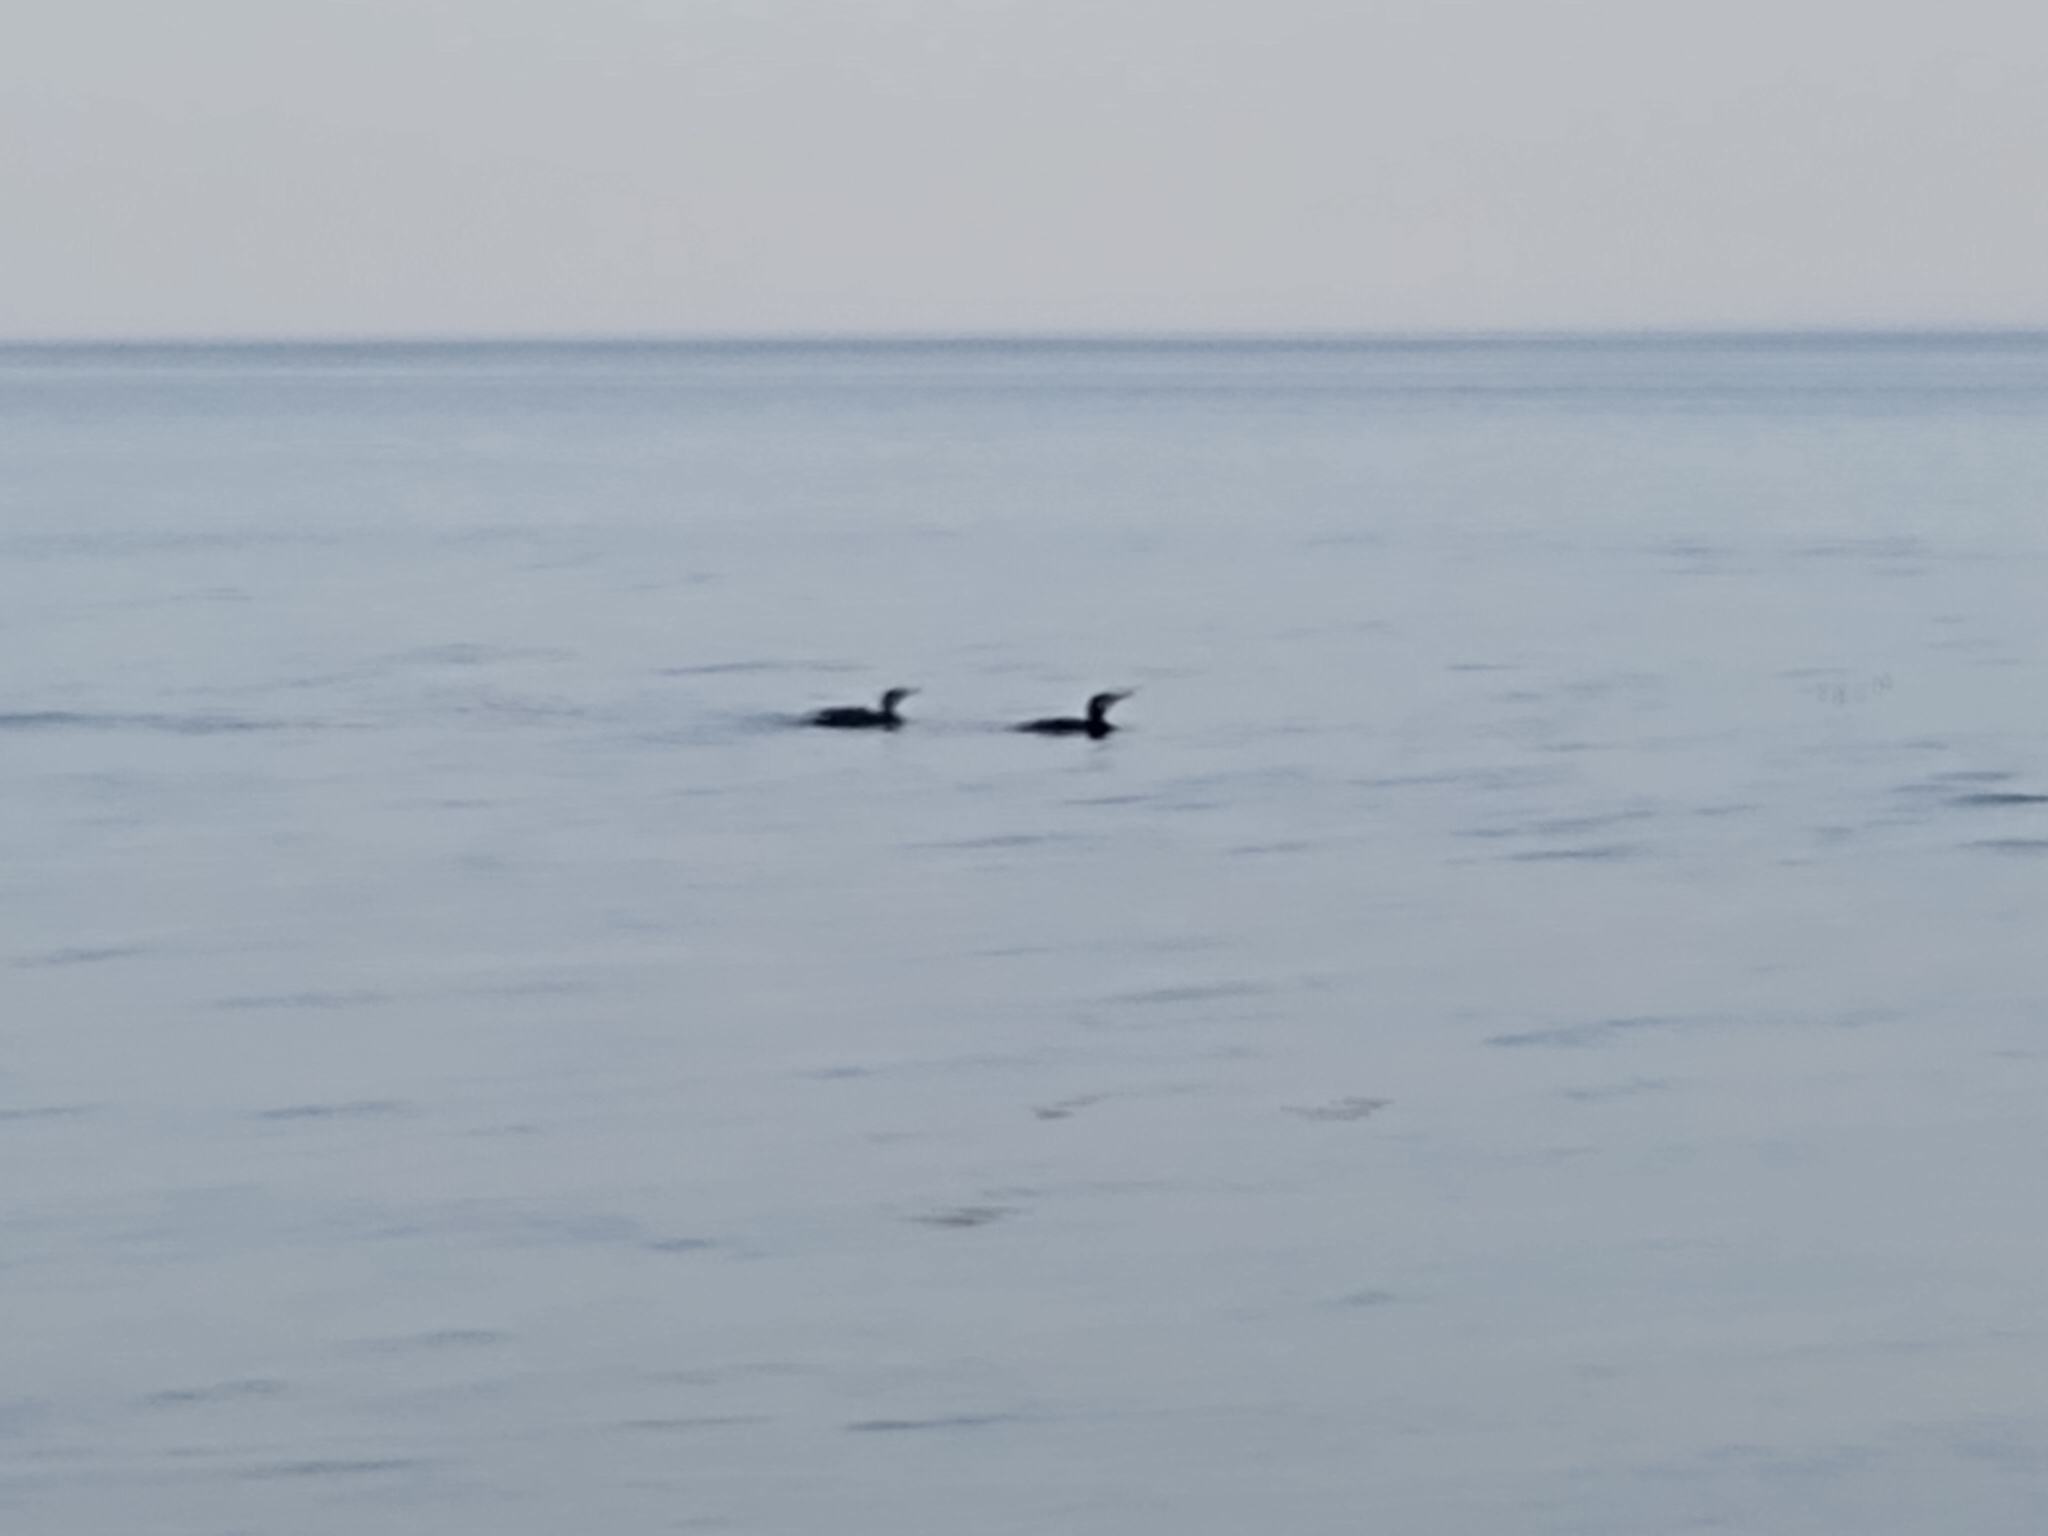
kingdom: Animalia
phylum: Chordata
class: Aves
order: Suliformes
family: Phalacrocoracidae
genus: Phalacrocorax
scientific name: Phalacrocorax carbo
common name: Great cormorant
